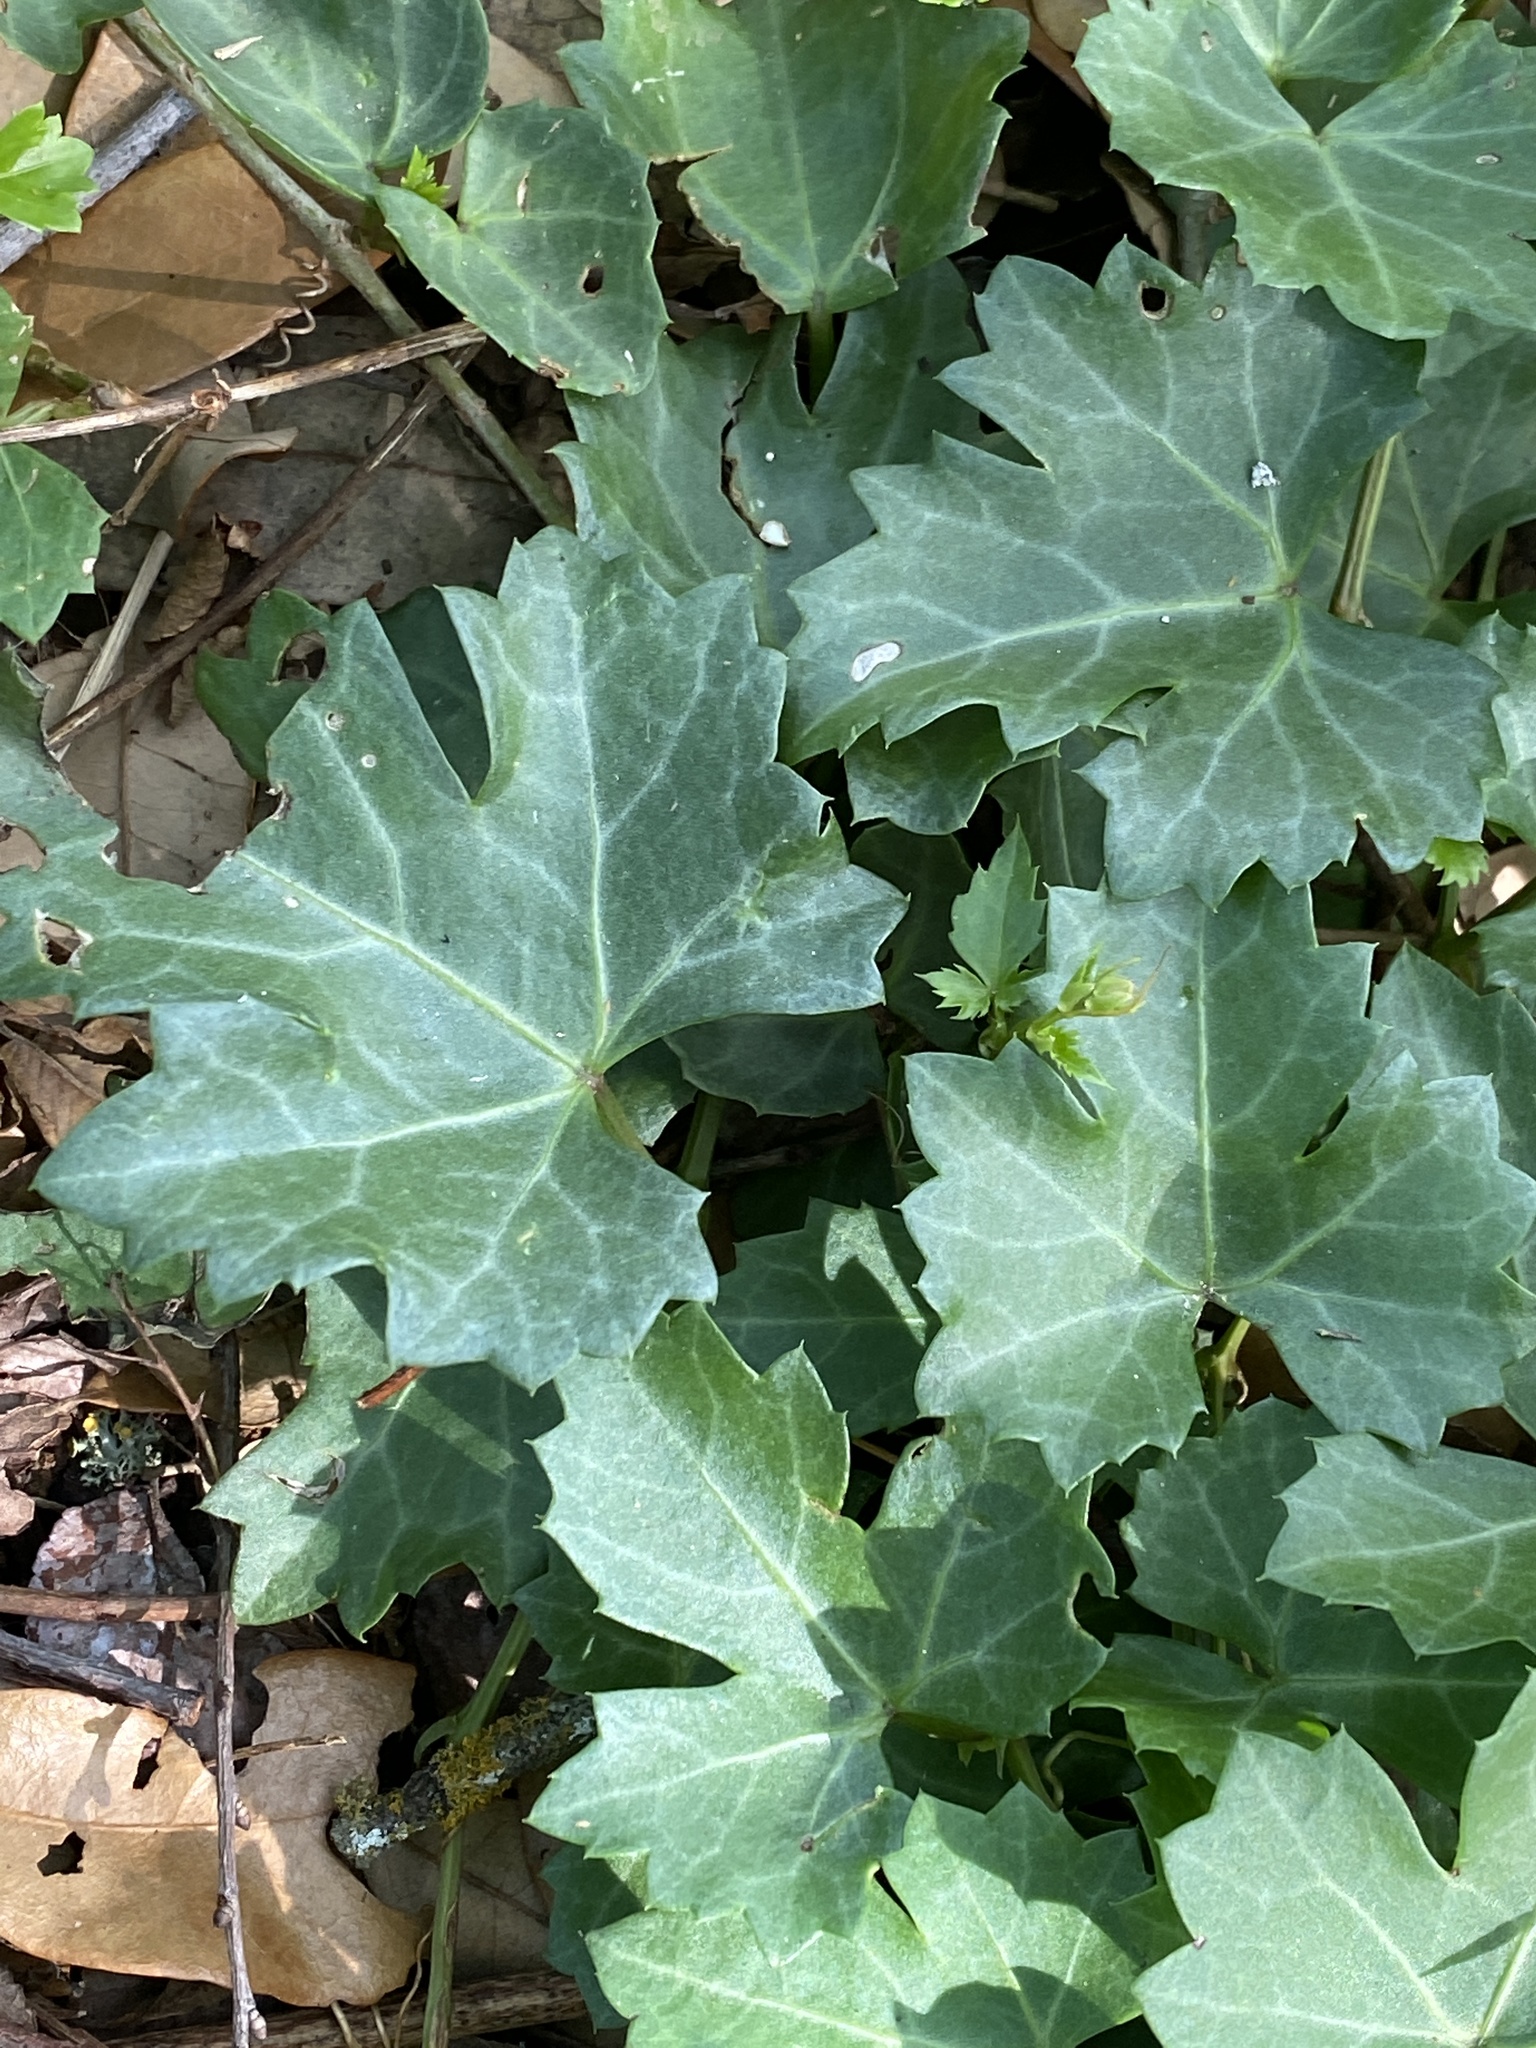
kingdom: Plantae
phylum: Tracheophyta
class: Magnoliopsida
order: Vitales
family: Vitaceae
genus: Cissus
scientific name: Cissus trifoliata
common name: Vine-sorrel
